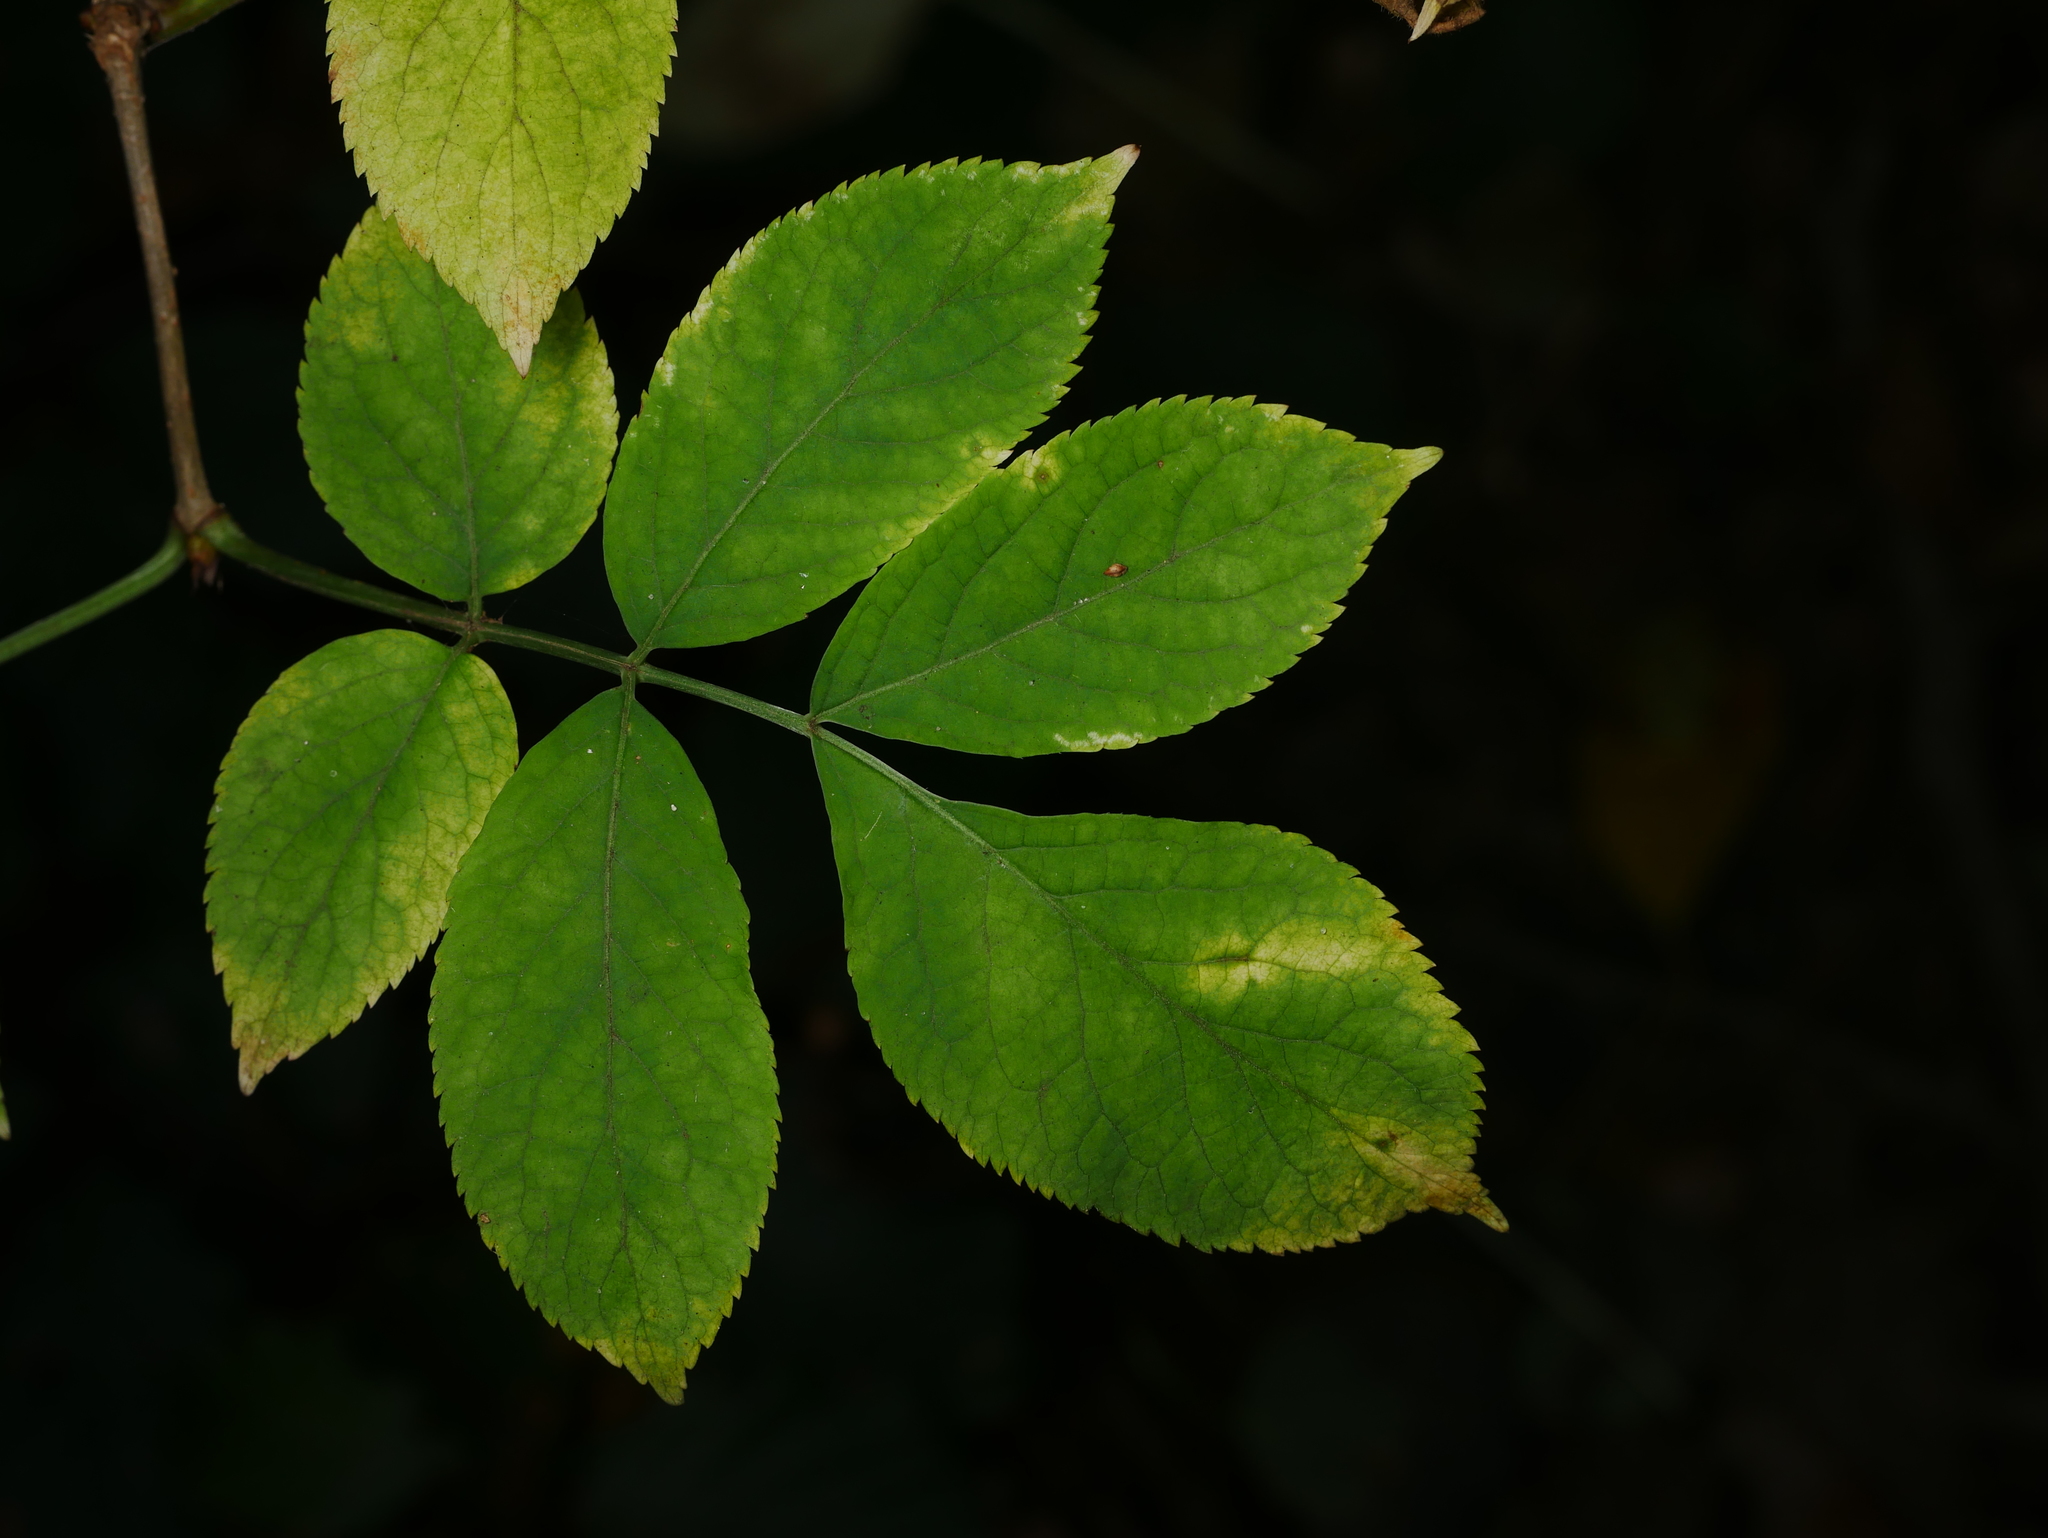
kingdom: Plantae
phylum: Tracheophyta
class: Magnoliopsida
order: Dipsacales
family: Viburnaceae
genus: Sambucus
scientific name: Sambucus nigra
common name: Elder
